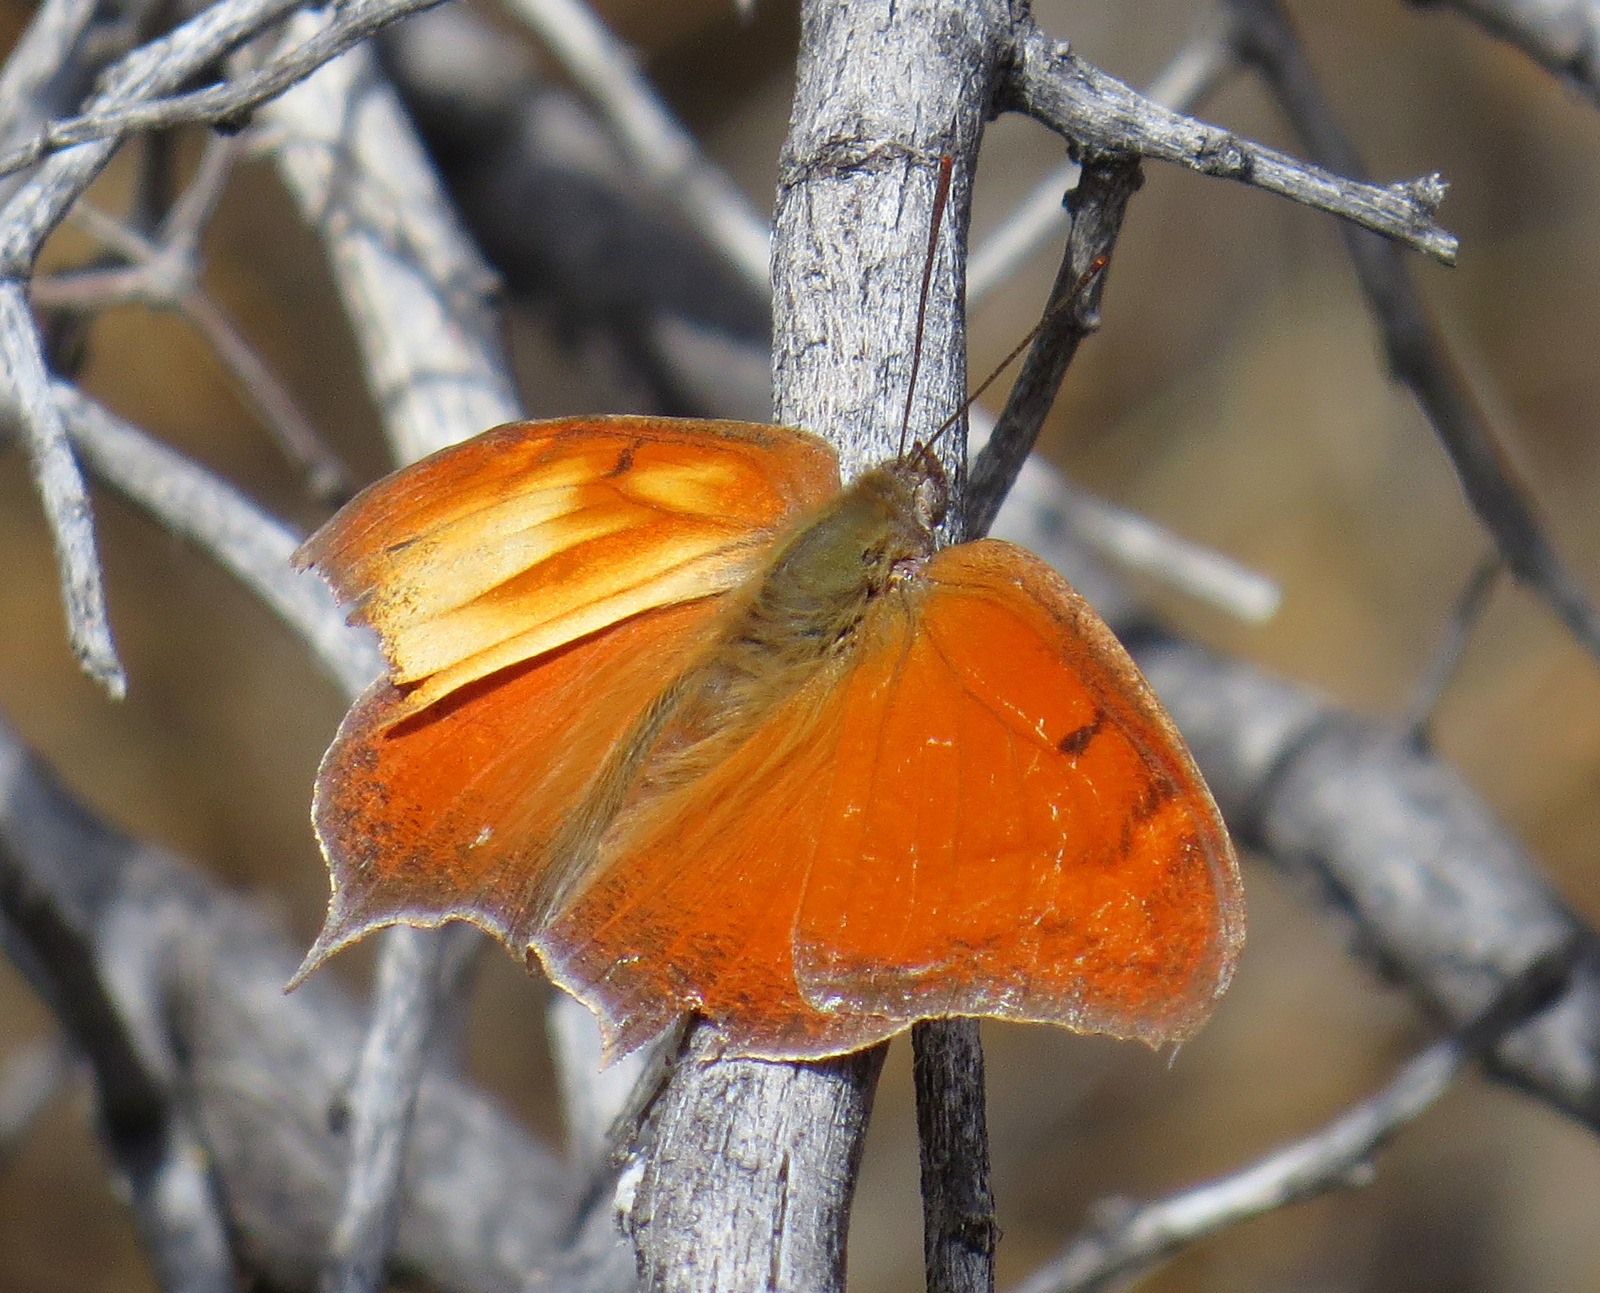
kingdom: Animalia
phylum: Arthropoda
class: Insecta
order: Lepidoptera
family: Nymphalidae
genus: Anaea
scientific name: Anaea andria
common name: Goatweed leafwing
